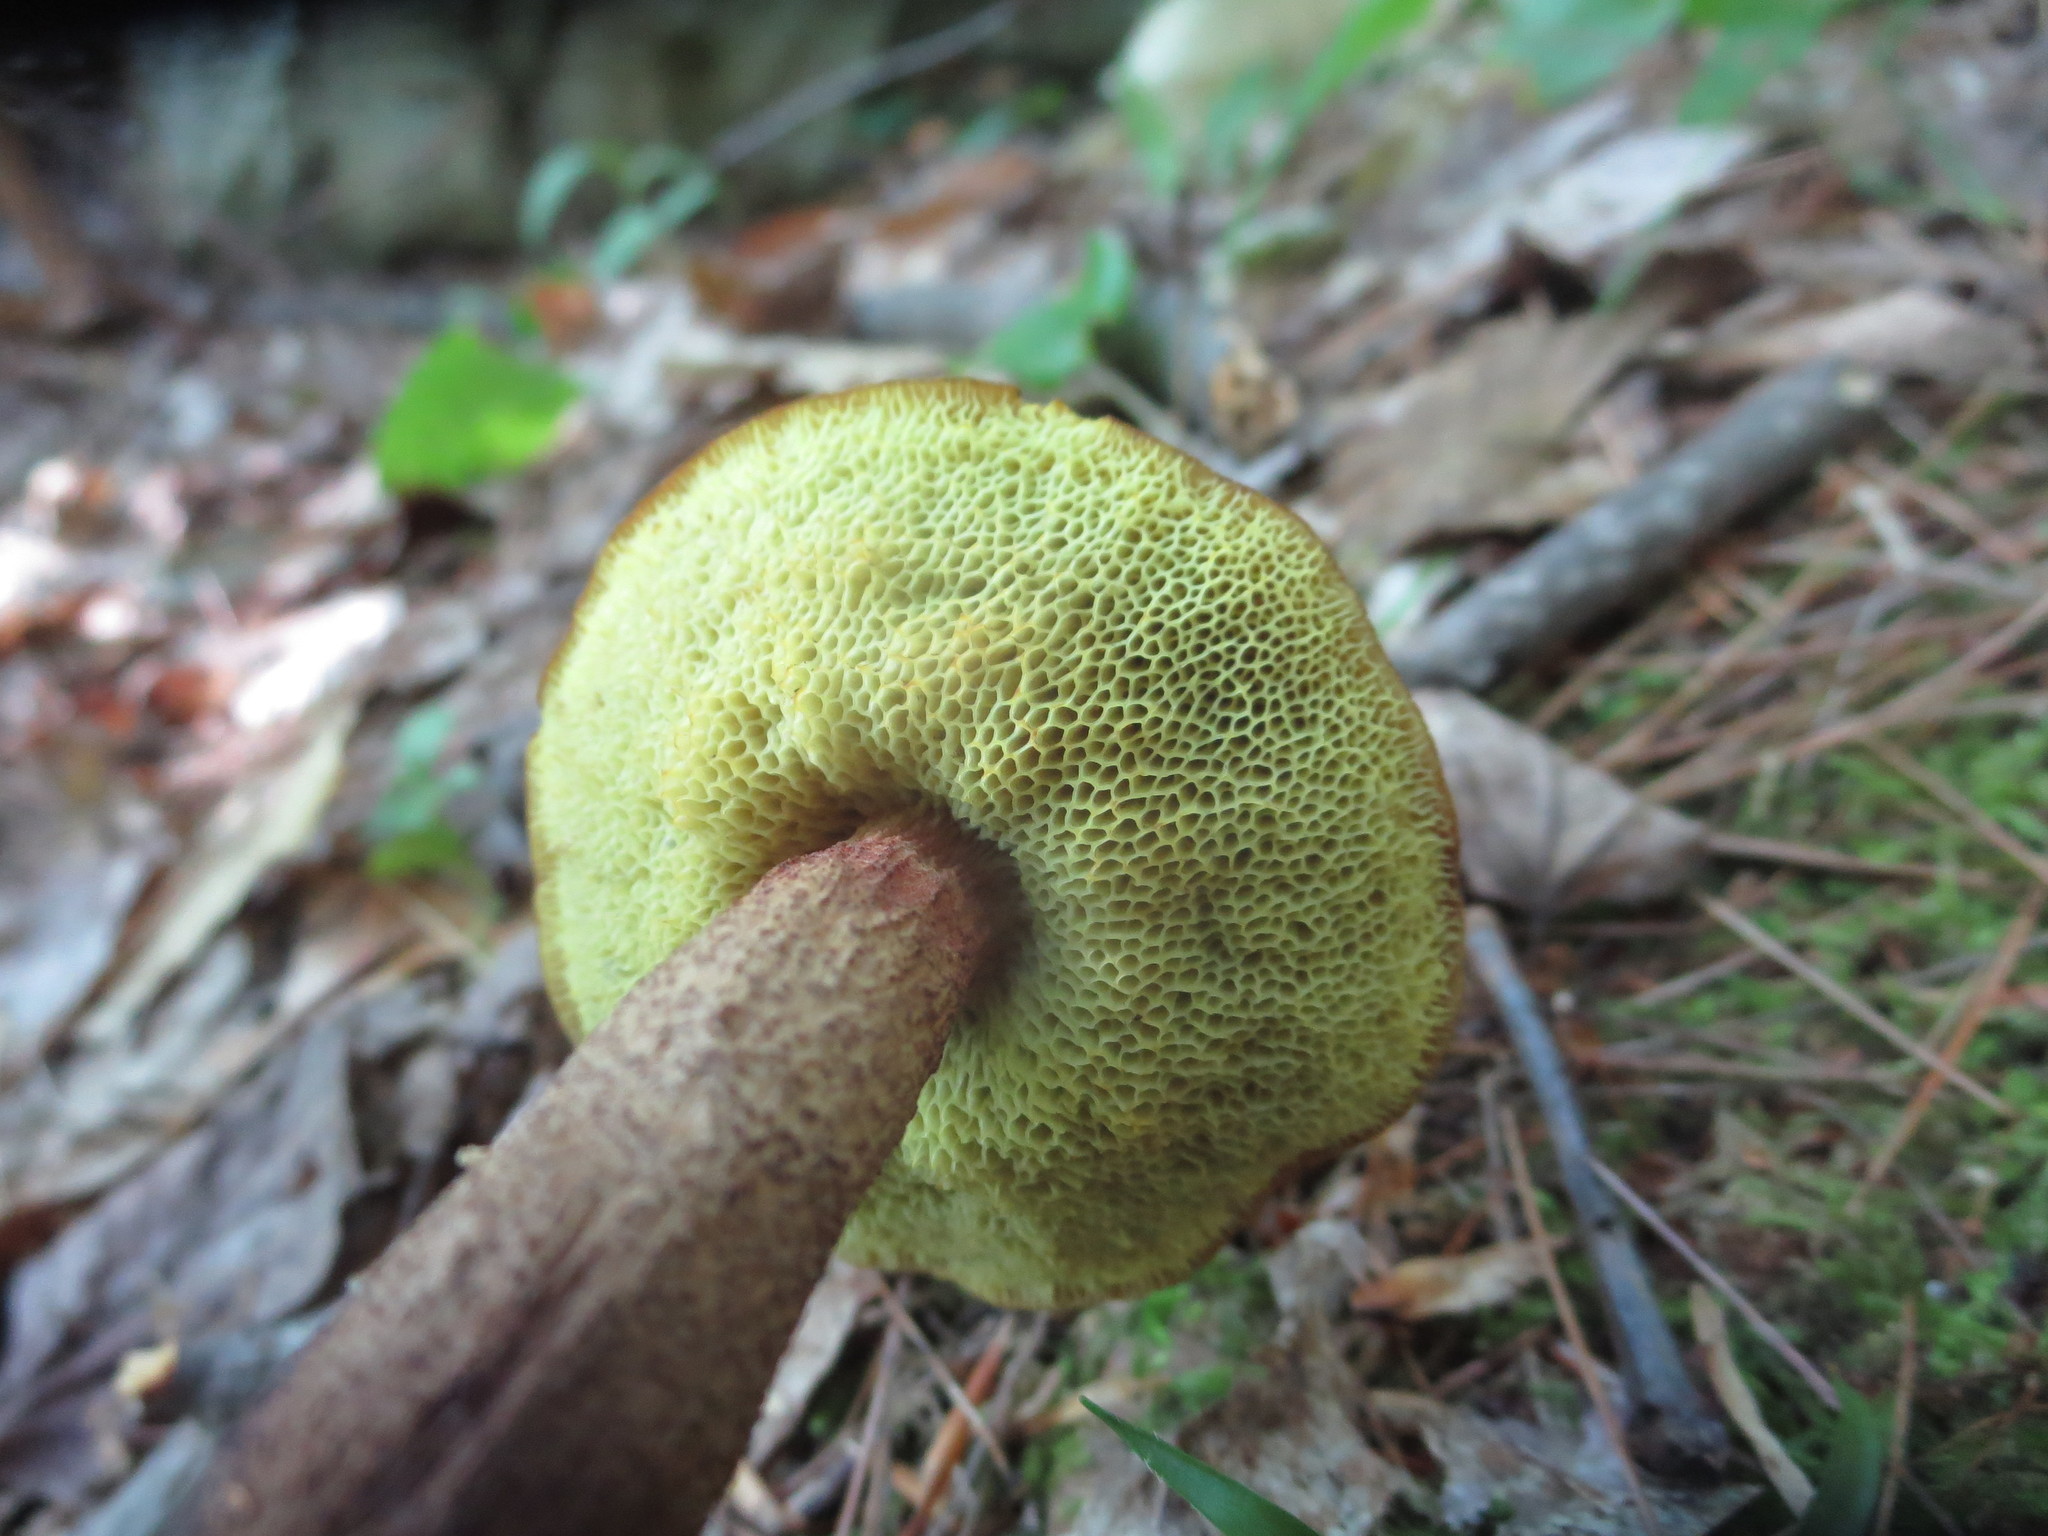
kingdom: Fungi
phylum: Basidiomycota
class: Agaricomycetes
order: Boletales
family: Boletaceae
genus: Boletellus
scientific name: Boletellus chrysenteroides
